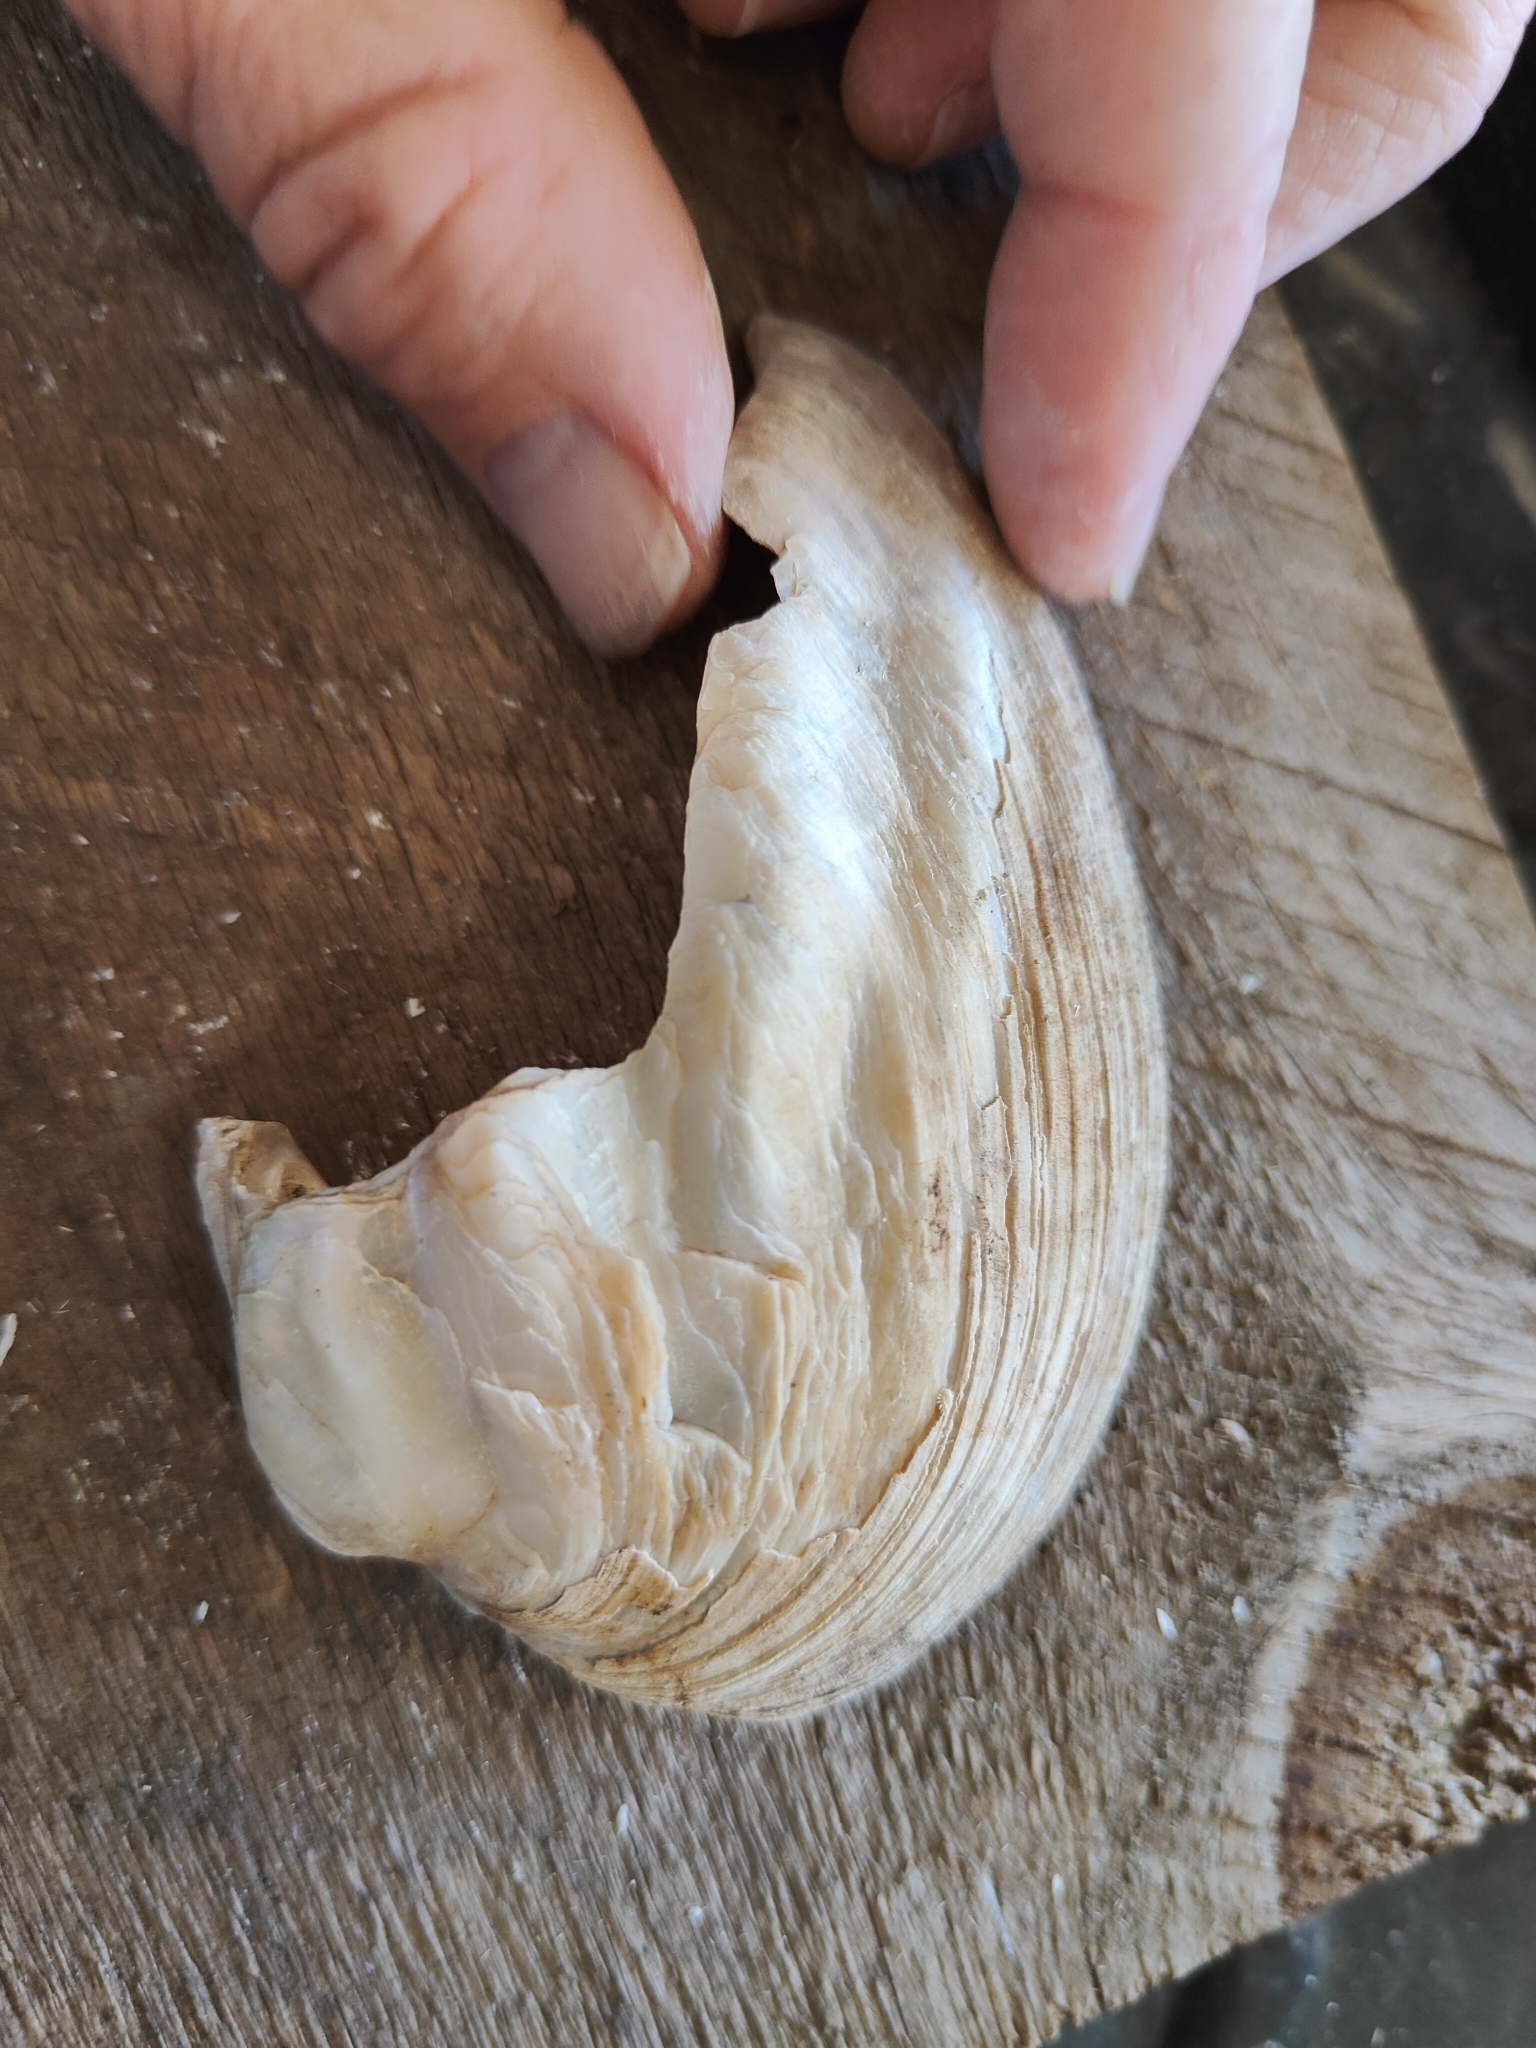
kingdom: Animalia
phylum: Mollusca
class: Bivalvia
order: Unionida
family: Unionidae
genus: Amblema
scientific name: Amblema plicata
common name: Threeridge
